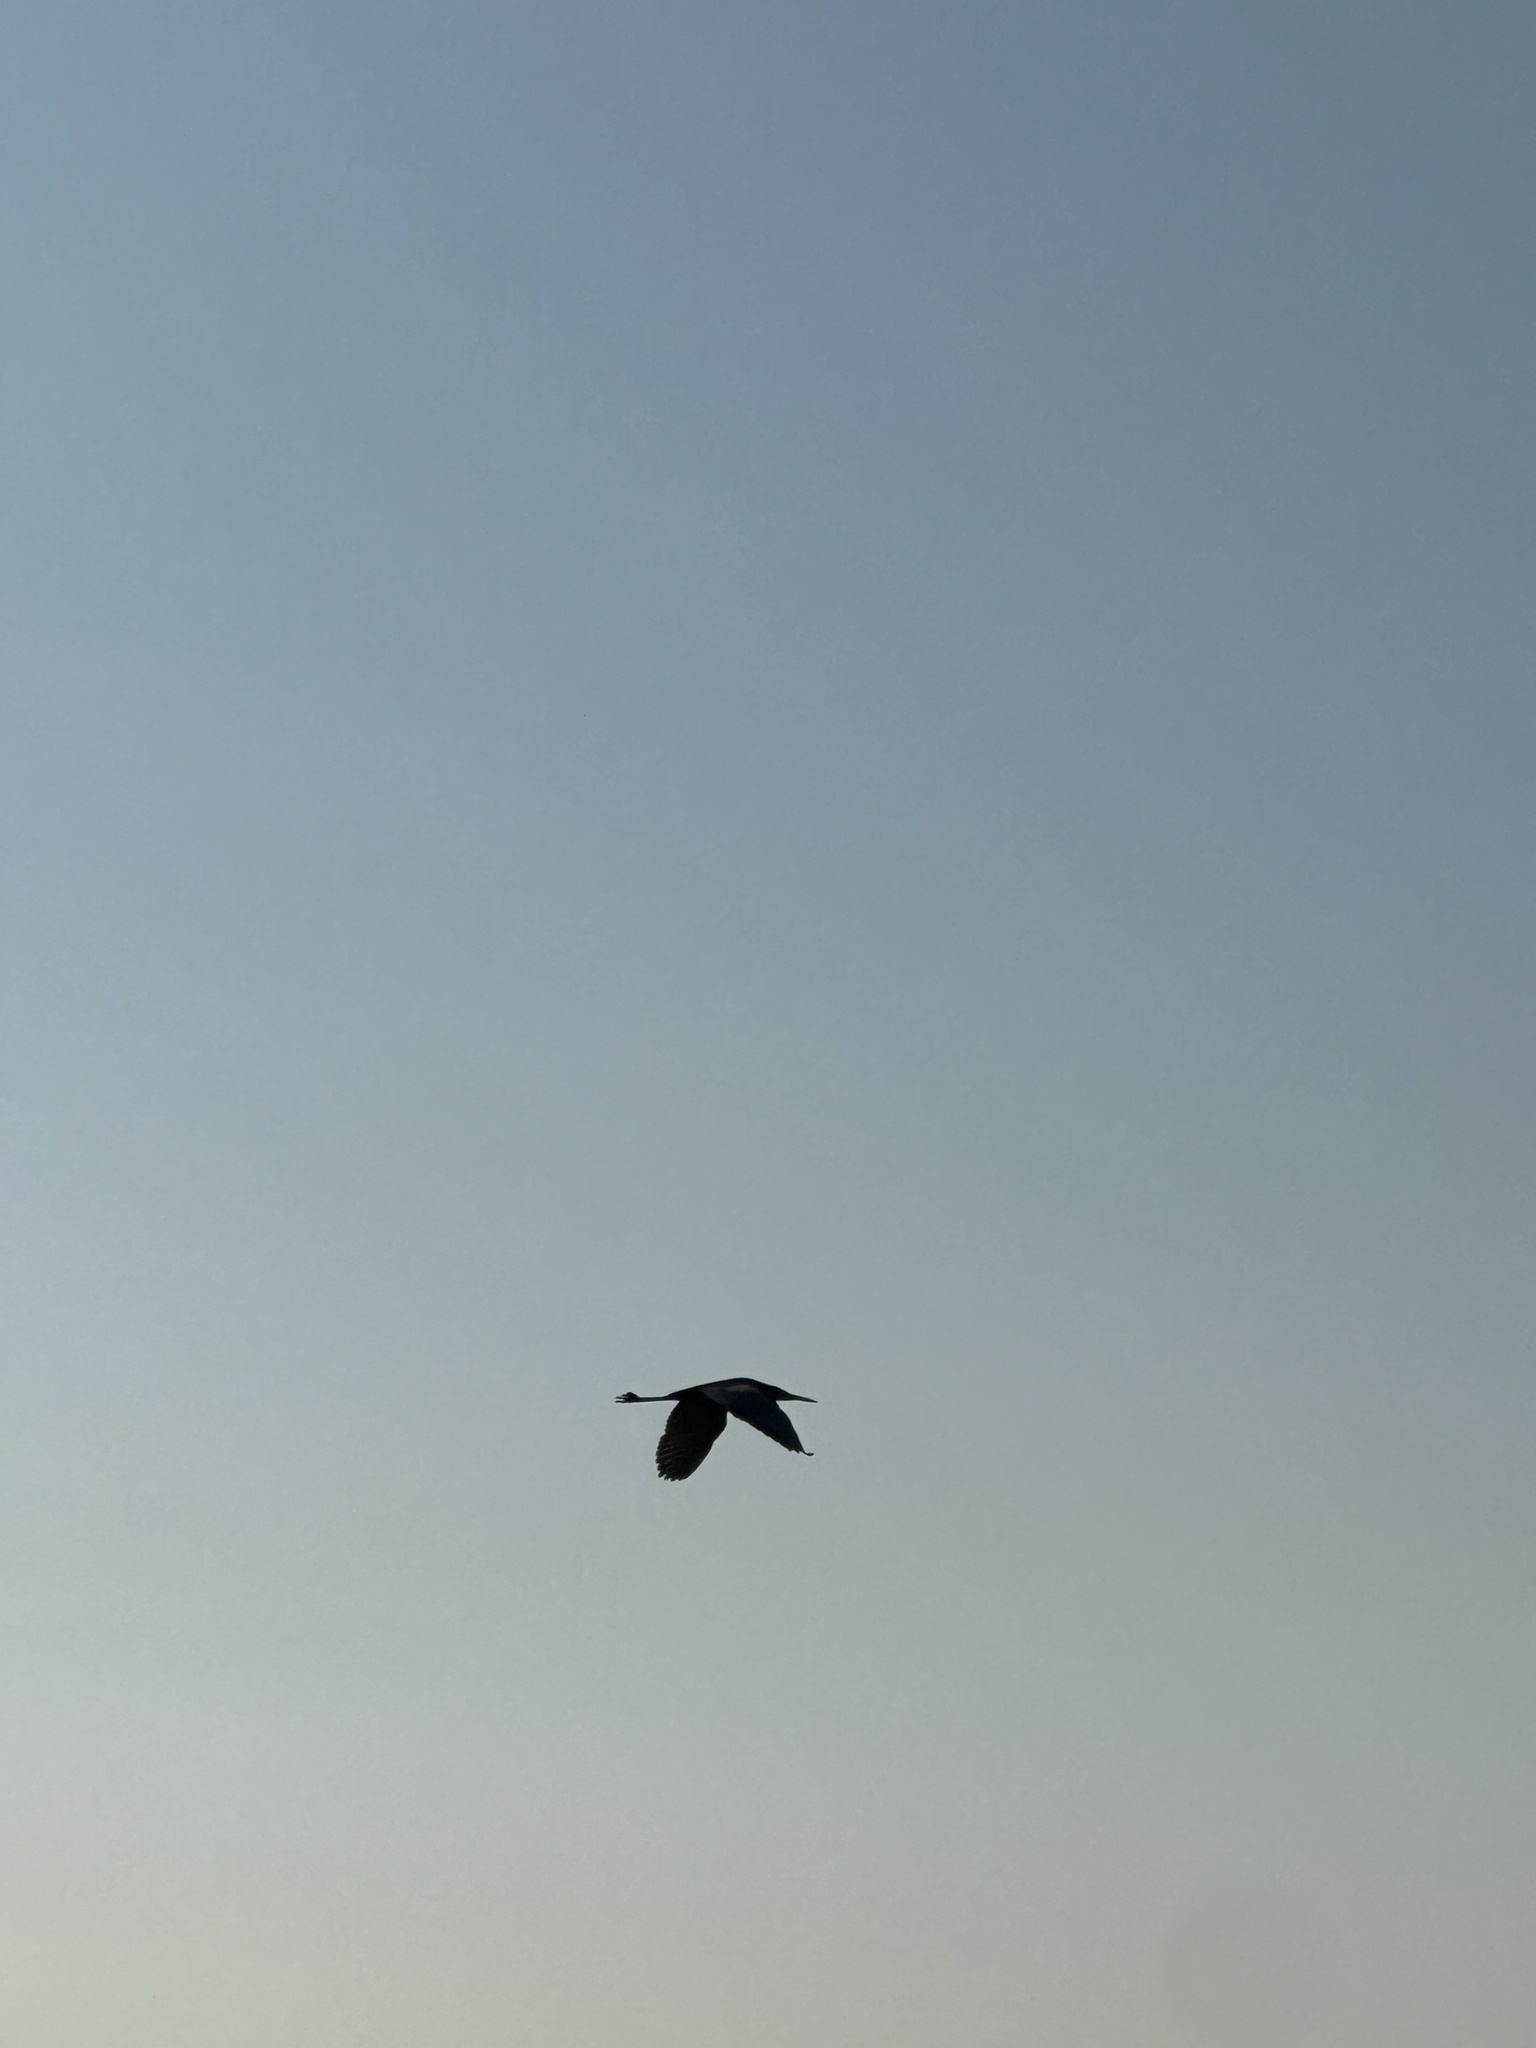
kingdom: Animalia
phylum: Chordata
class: Aves
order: Pelecaniformes
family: Ardeidae
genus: Ardea
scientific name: Ardea herodias
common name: Great blue heron
